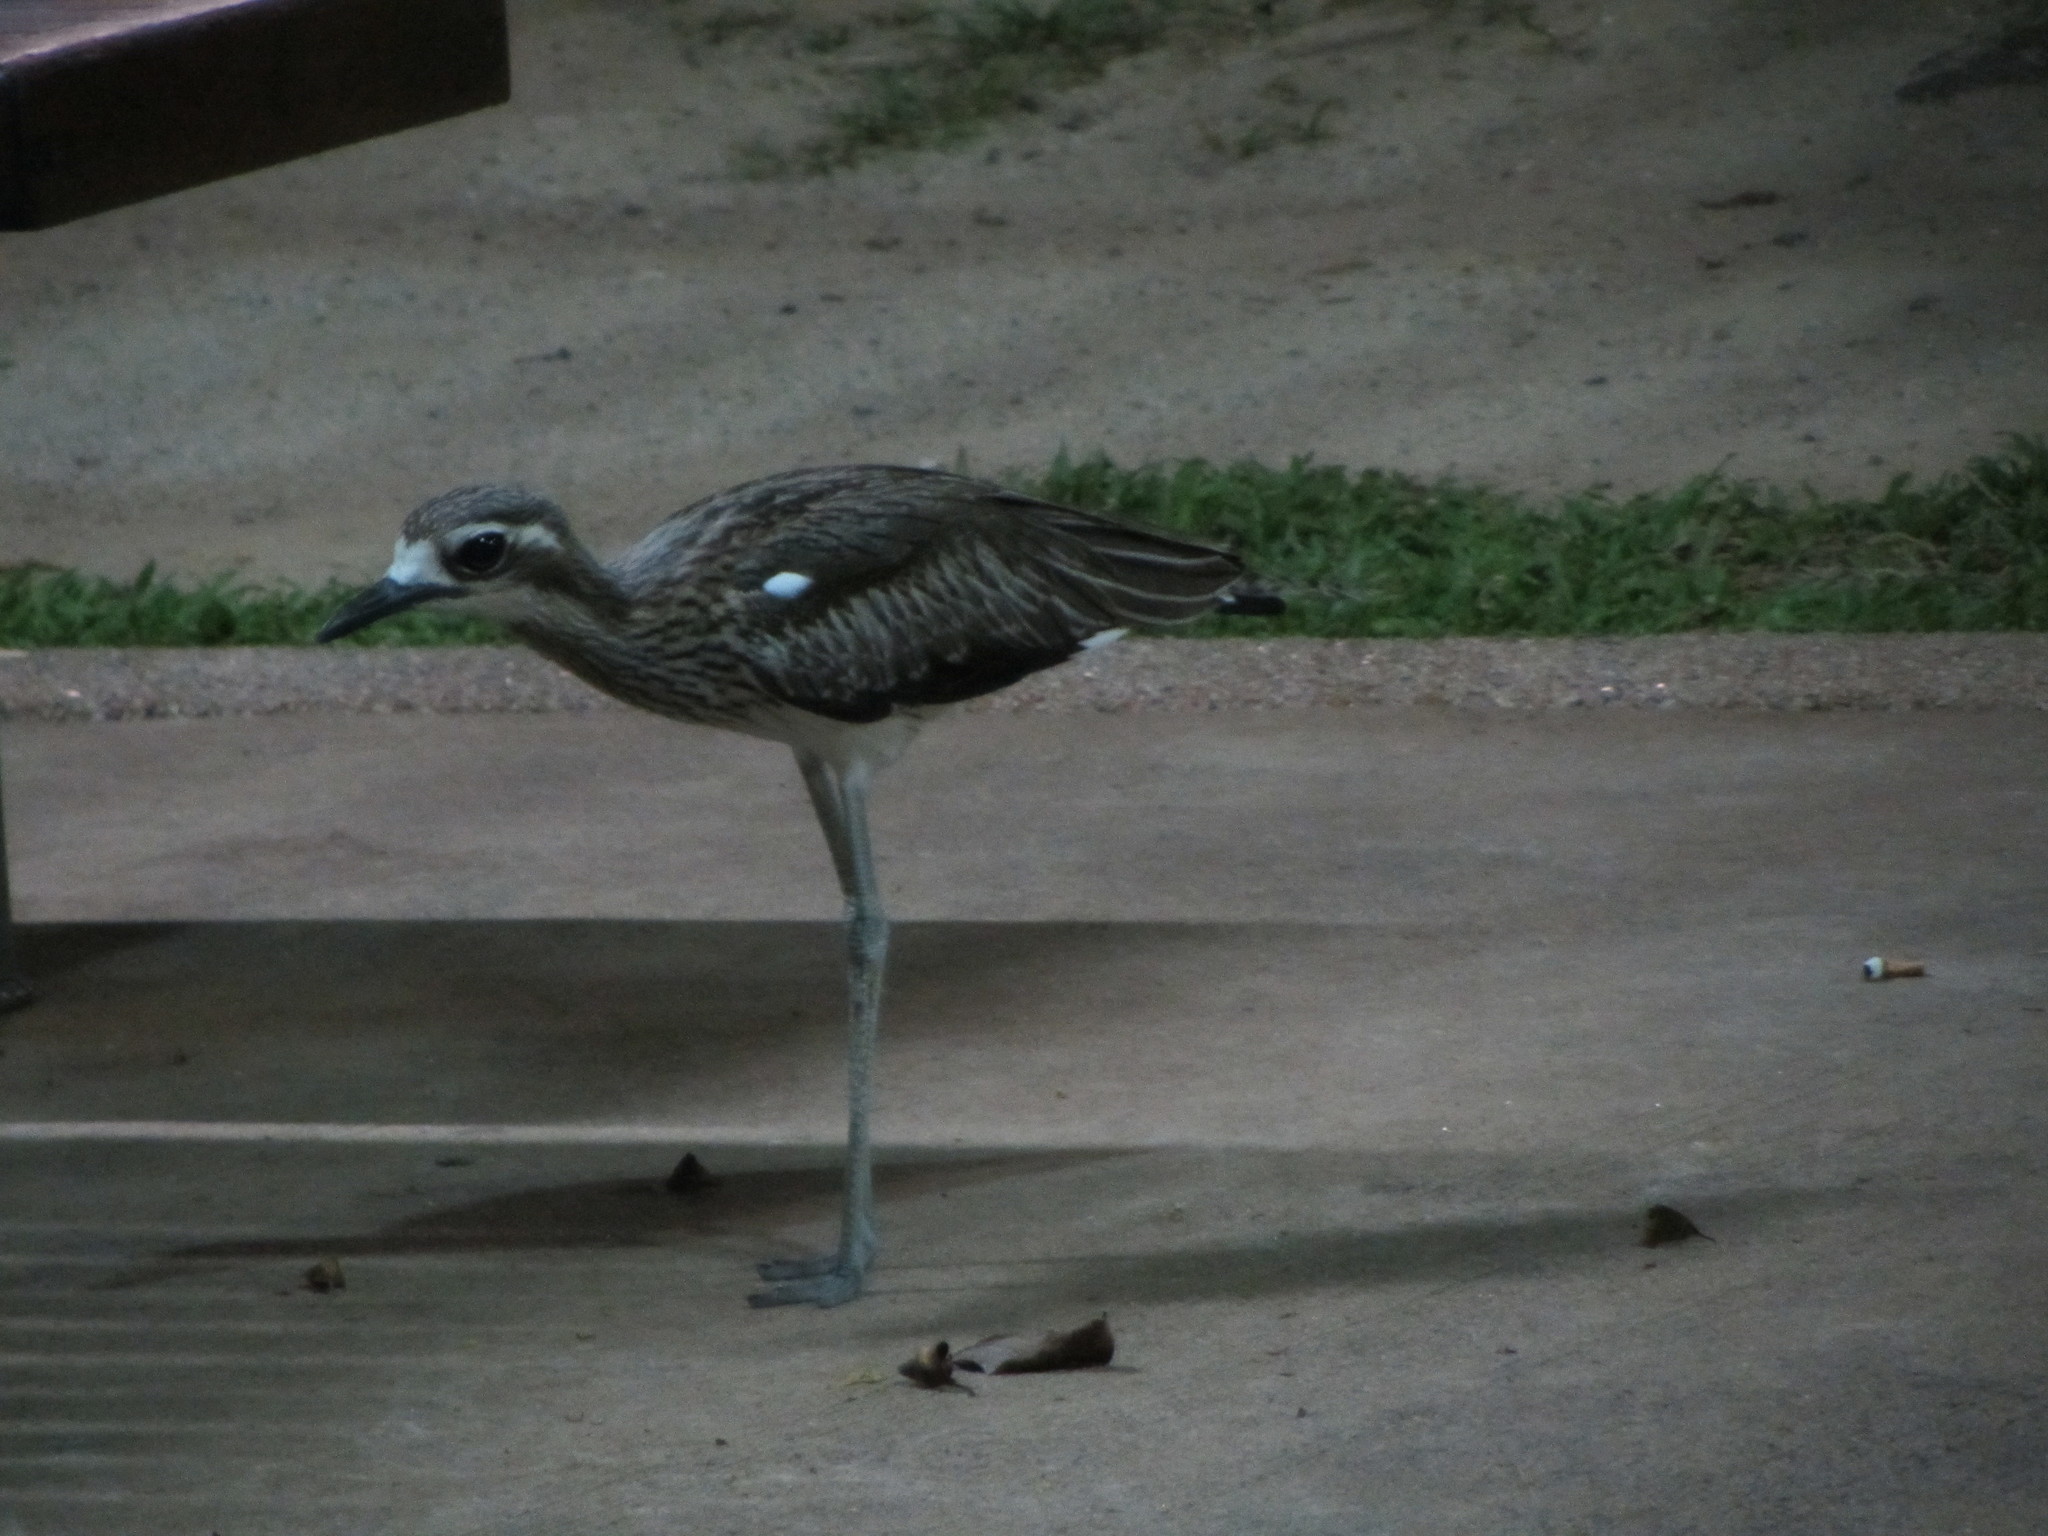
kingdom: Animalia
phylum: Chordata
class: Aves
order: Charadriiformes
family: Burhinidae
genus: Burhinus
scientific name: Burhinus grallarius
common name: Bush stone-curlew
